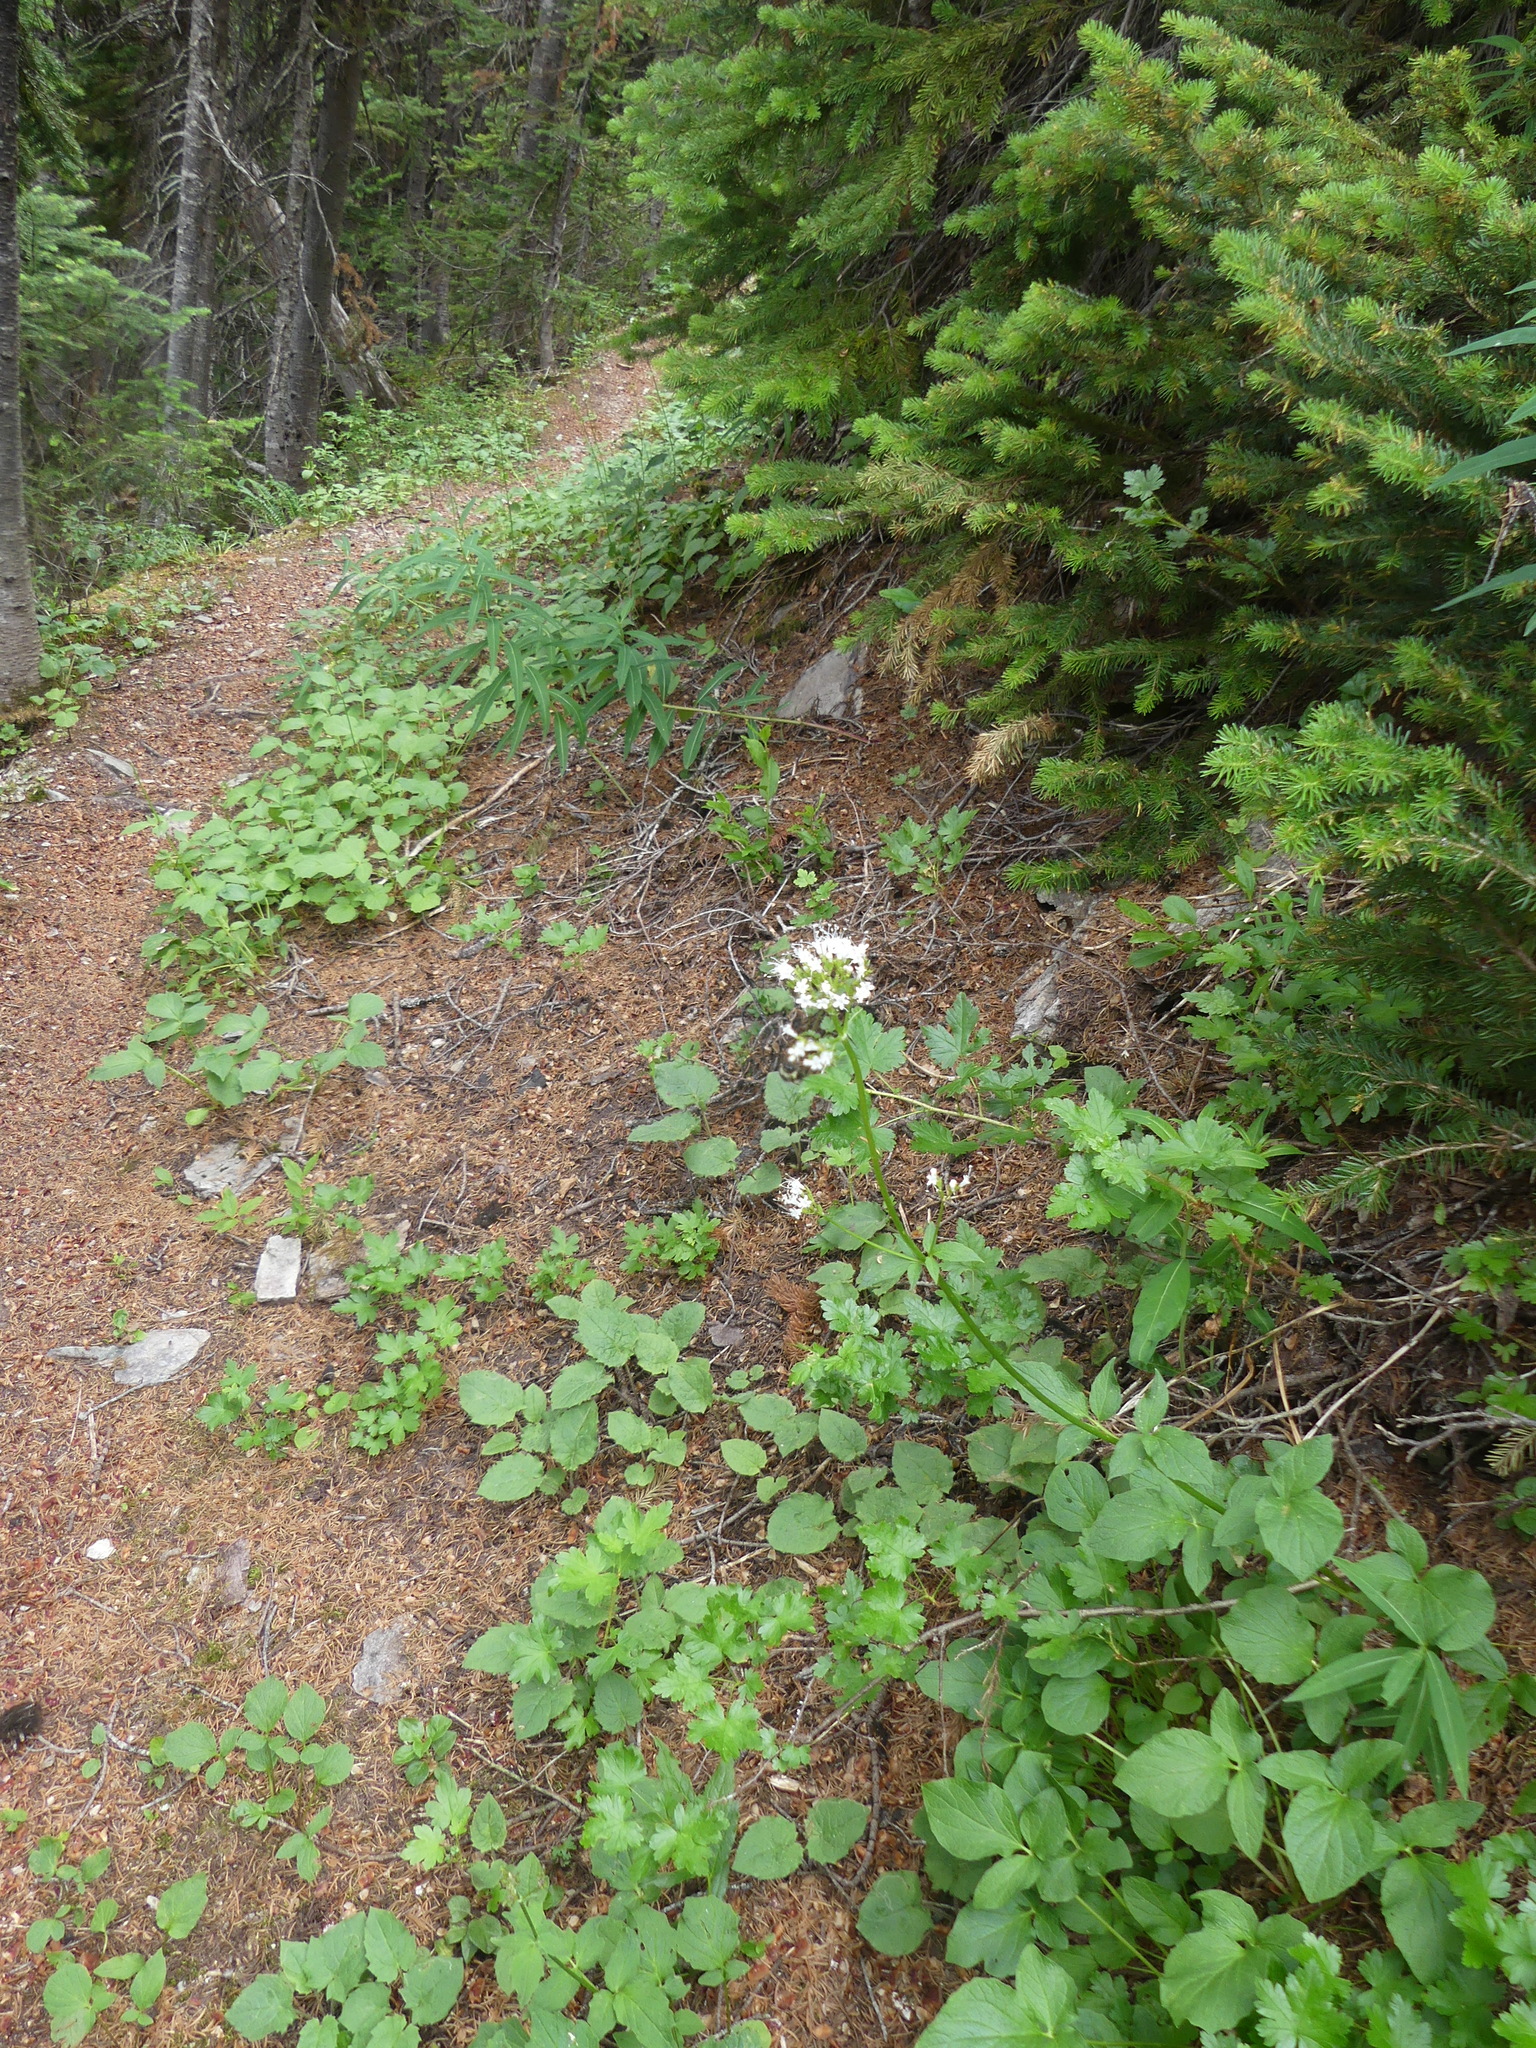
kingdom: Plantae
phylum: Tracheophyta
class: Magnoliopsida
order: Dipsacales
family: Caprifoliaceae
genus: Valeriana
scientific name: Valeriana sitchensis
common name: Pacific valerian
